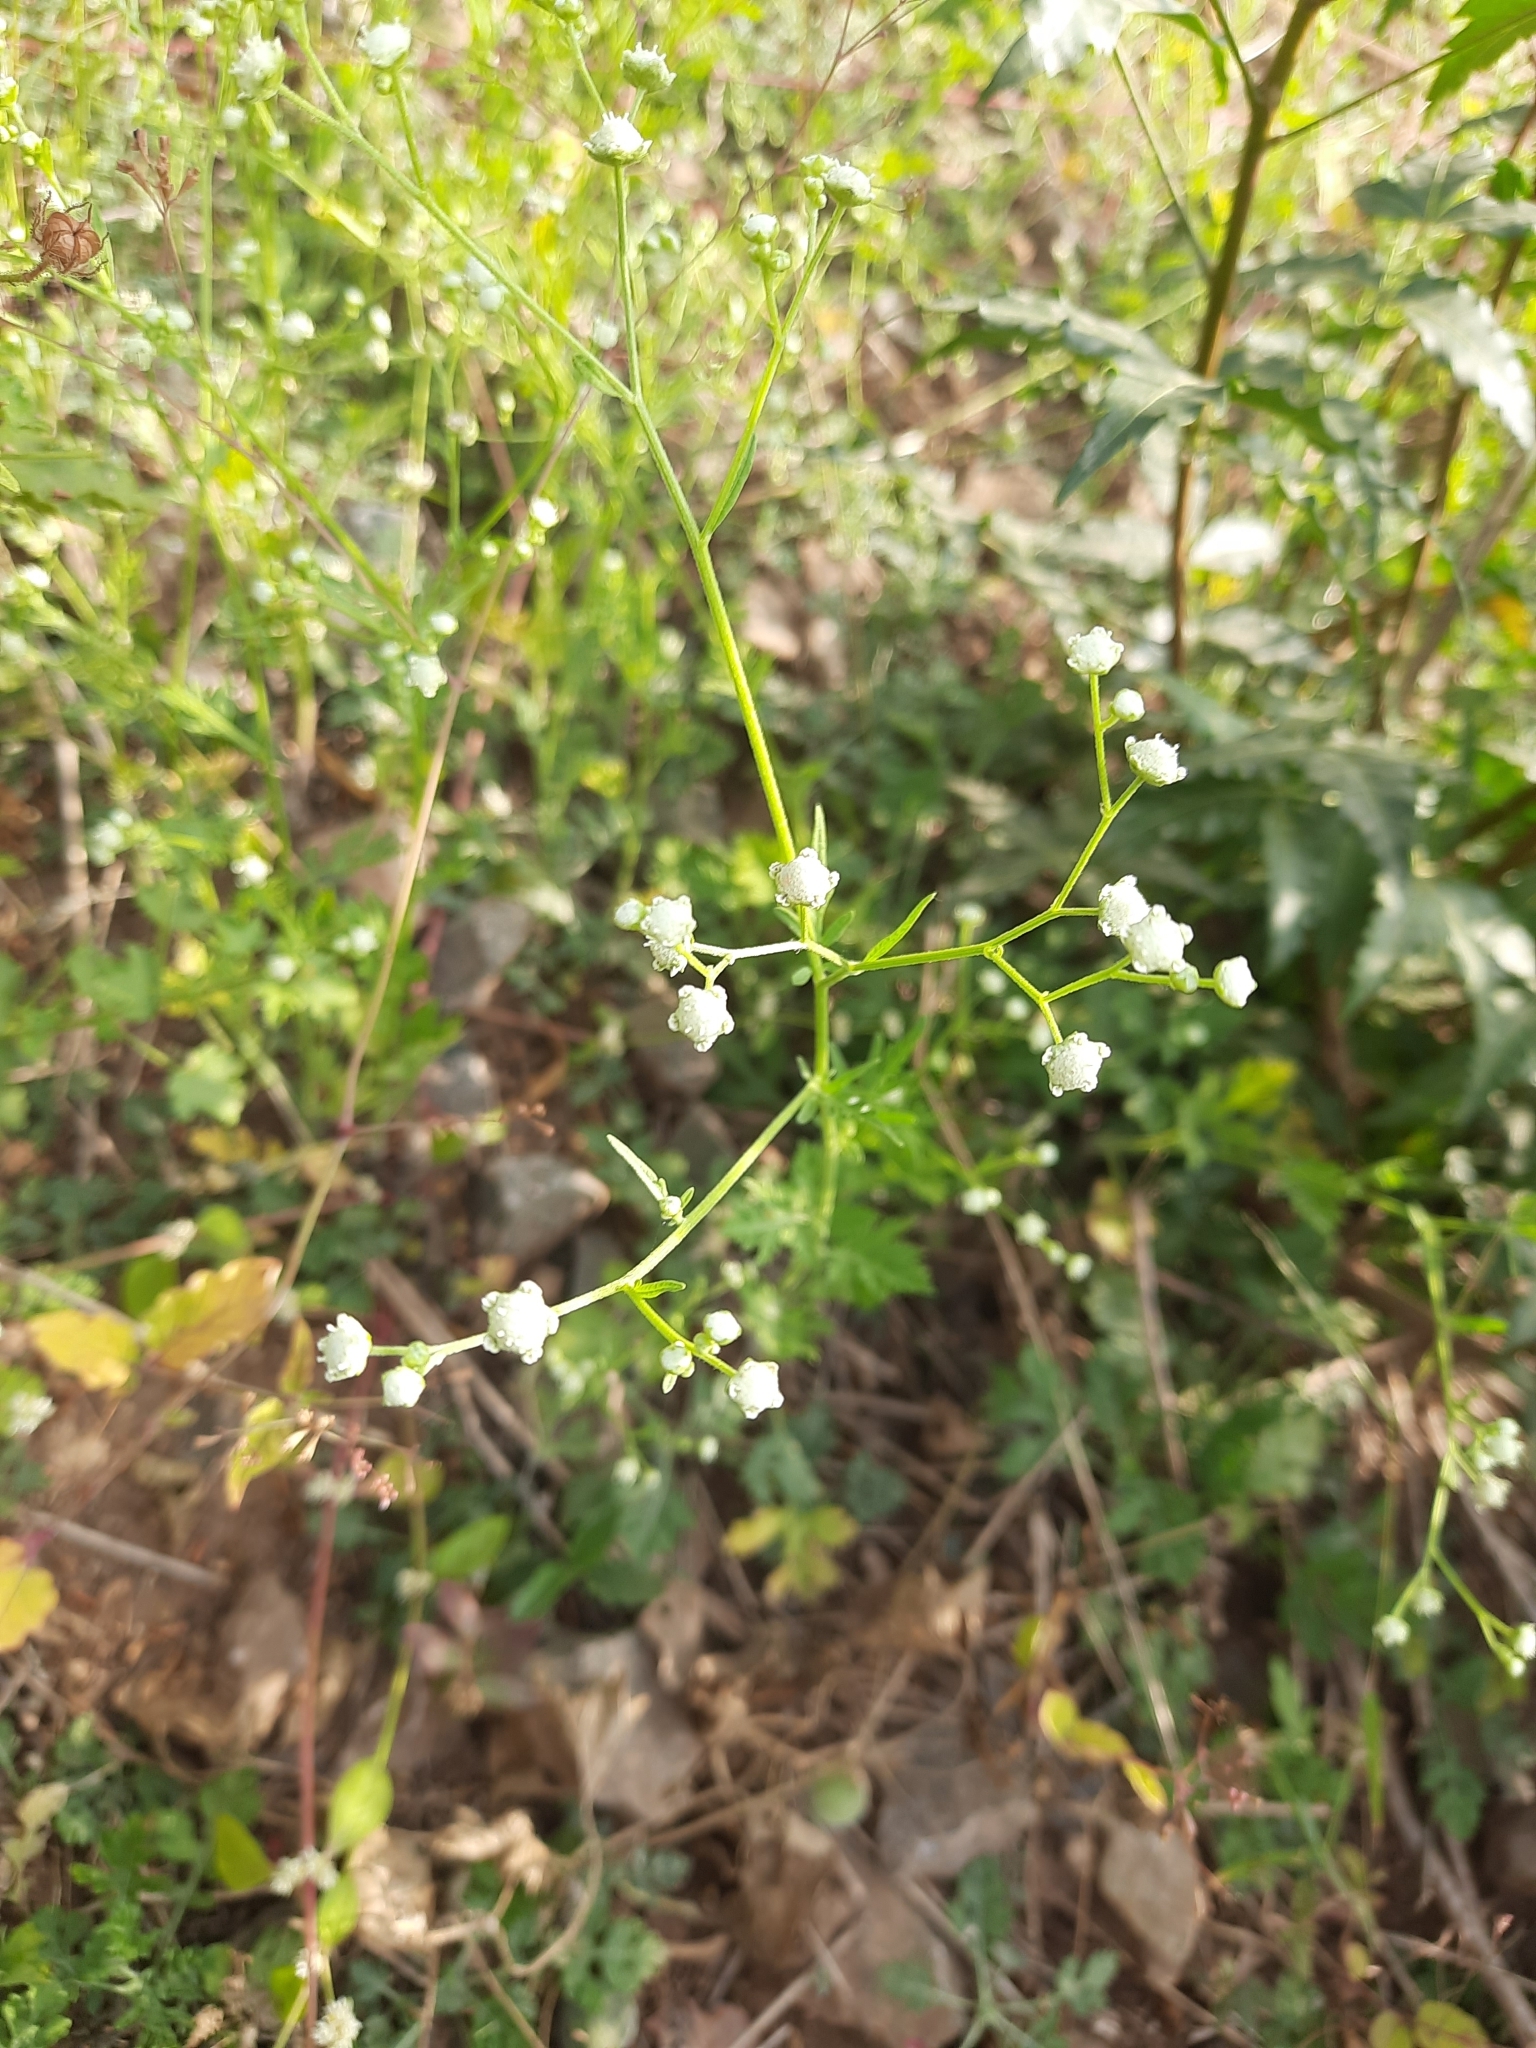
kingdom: Plantae
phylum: Tracheophyta
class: Magnoliopsida
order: Asterales
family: Asteraceae
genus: Parthenium
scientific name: Parthenium hysterophorus
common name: Santa maria feverfew
